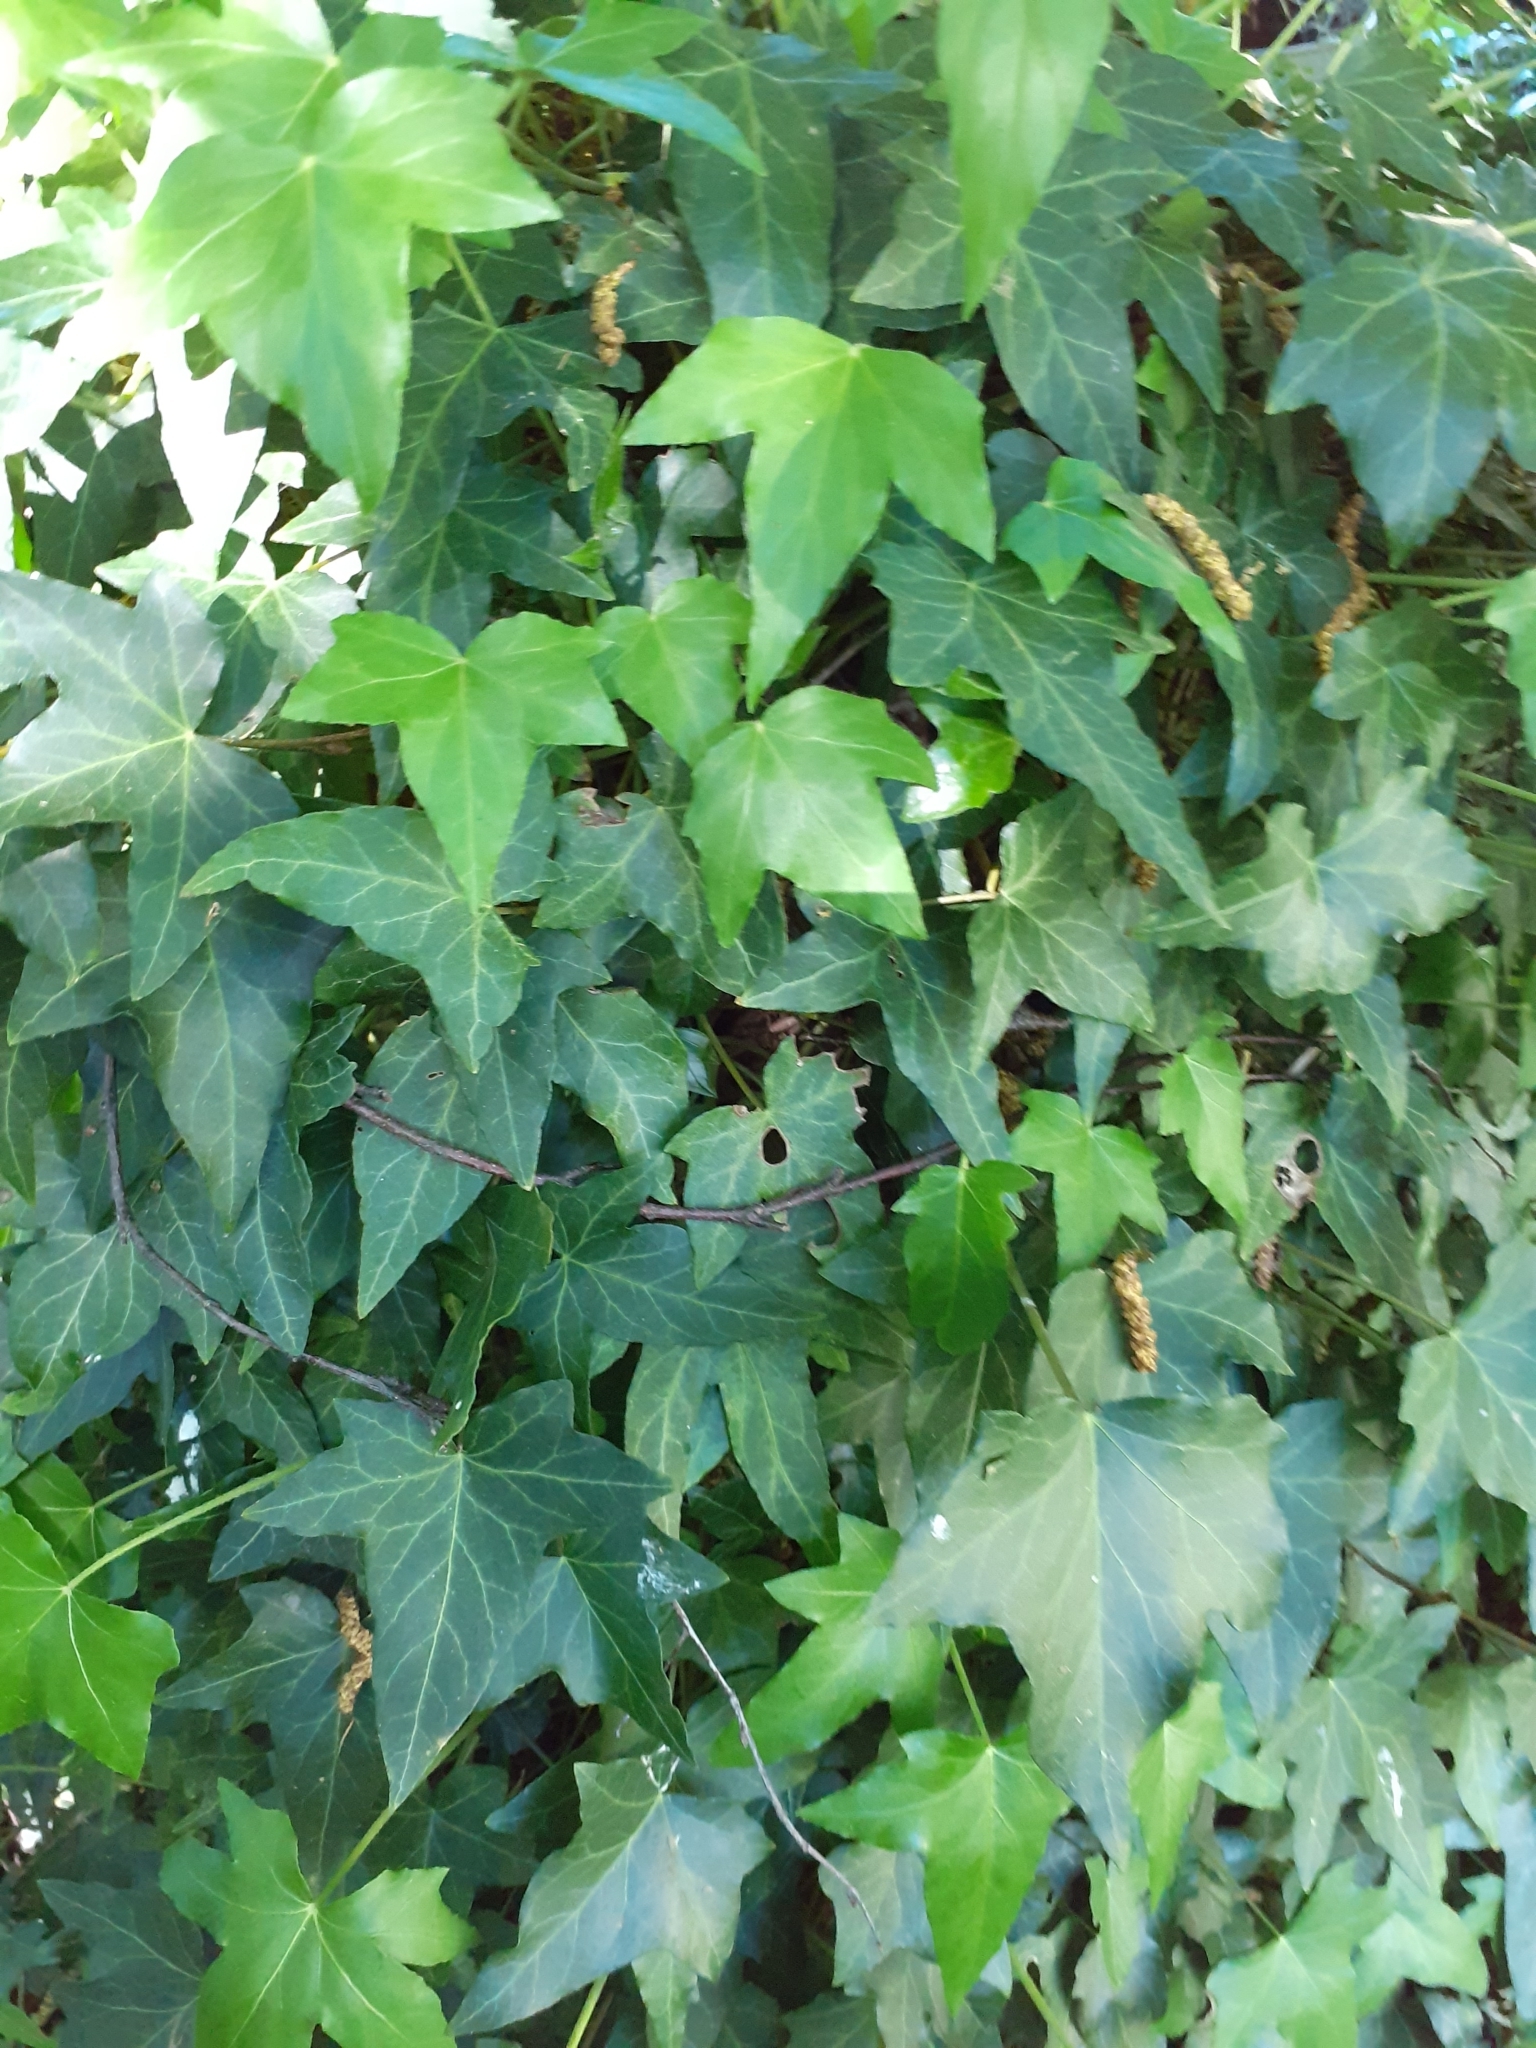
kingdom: Plantae
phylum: Tracheophyta
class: Magnoliopsida
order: Apiales
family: Araliaceae
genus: Hedera
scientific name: Hedera helix
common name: Ivy
